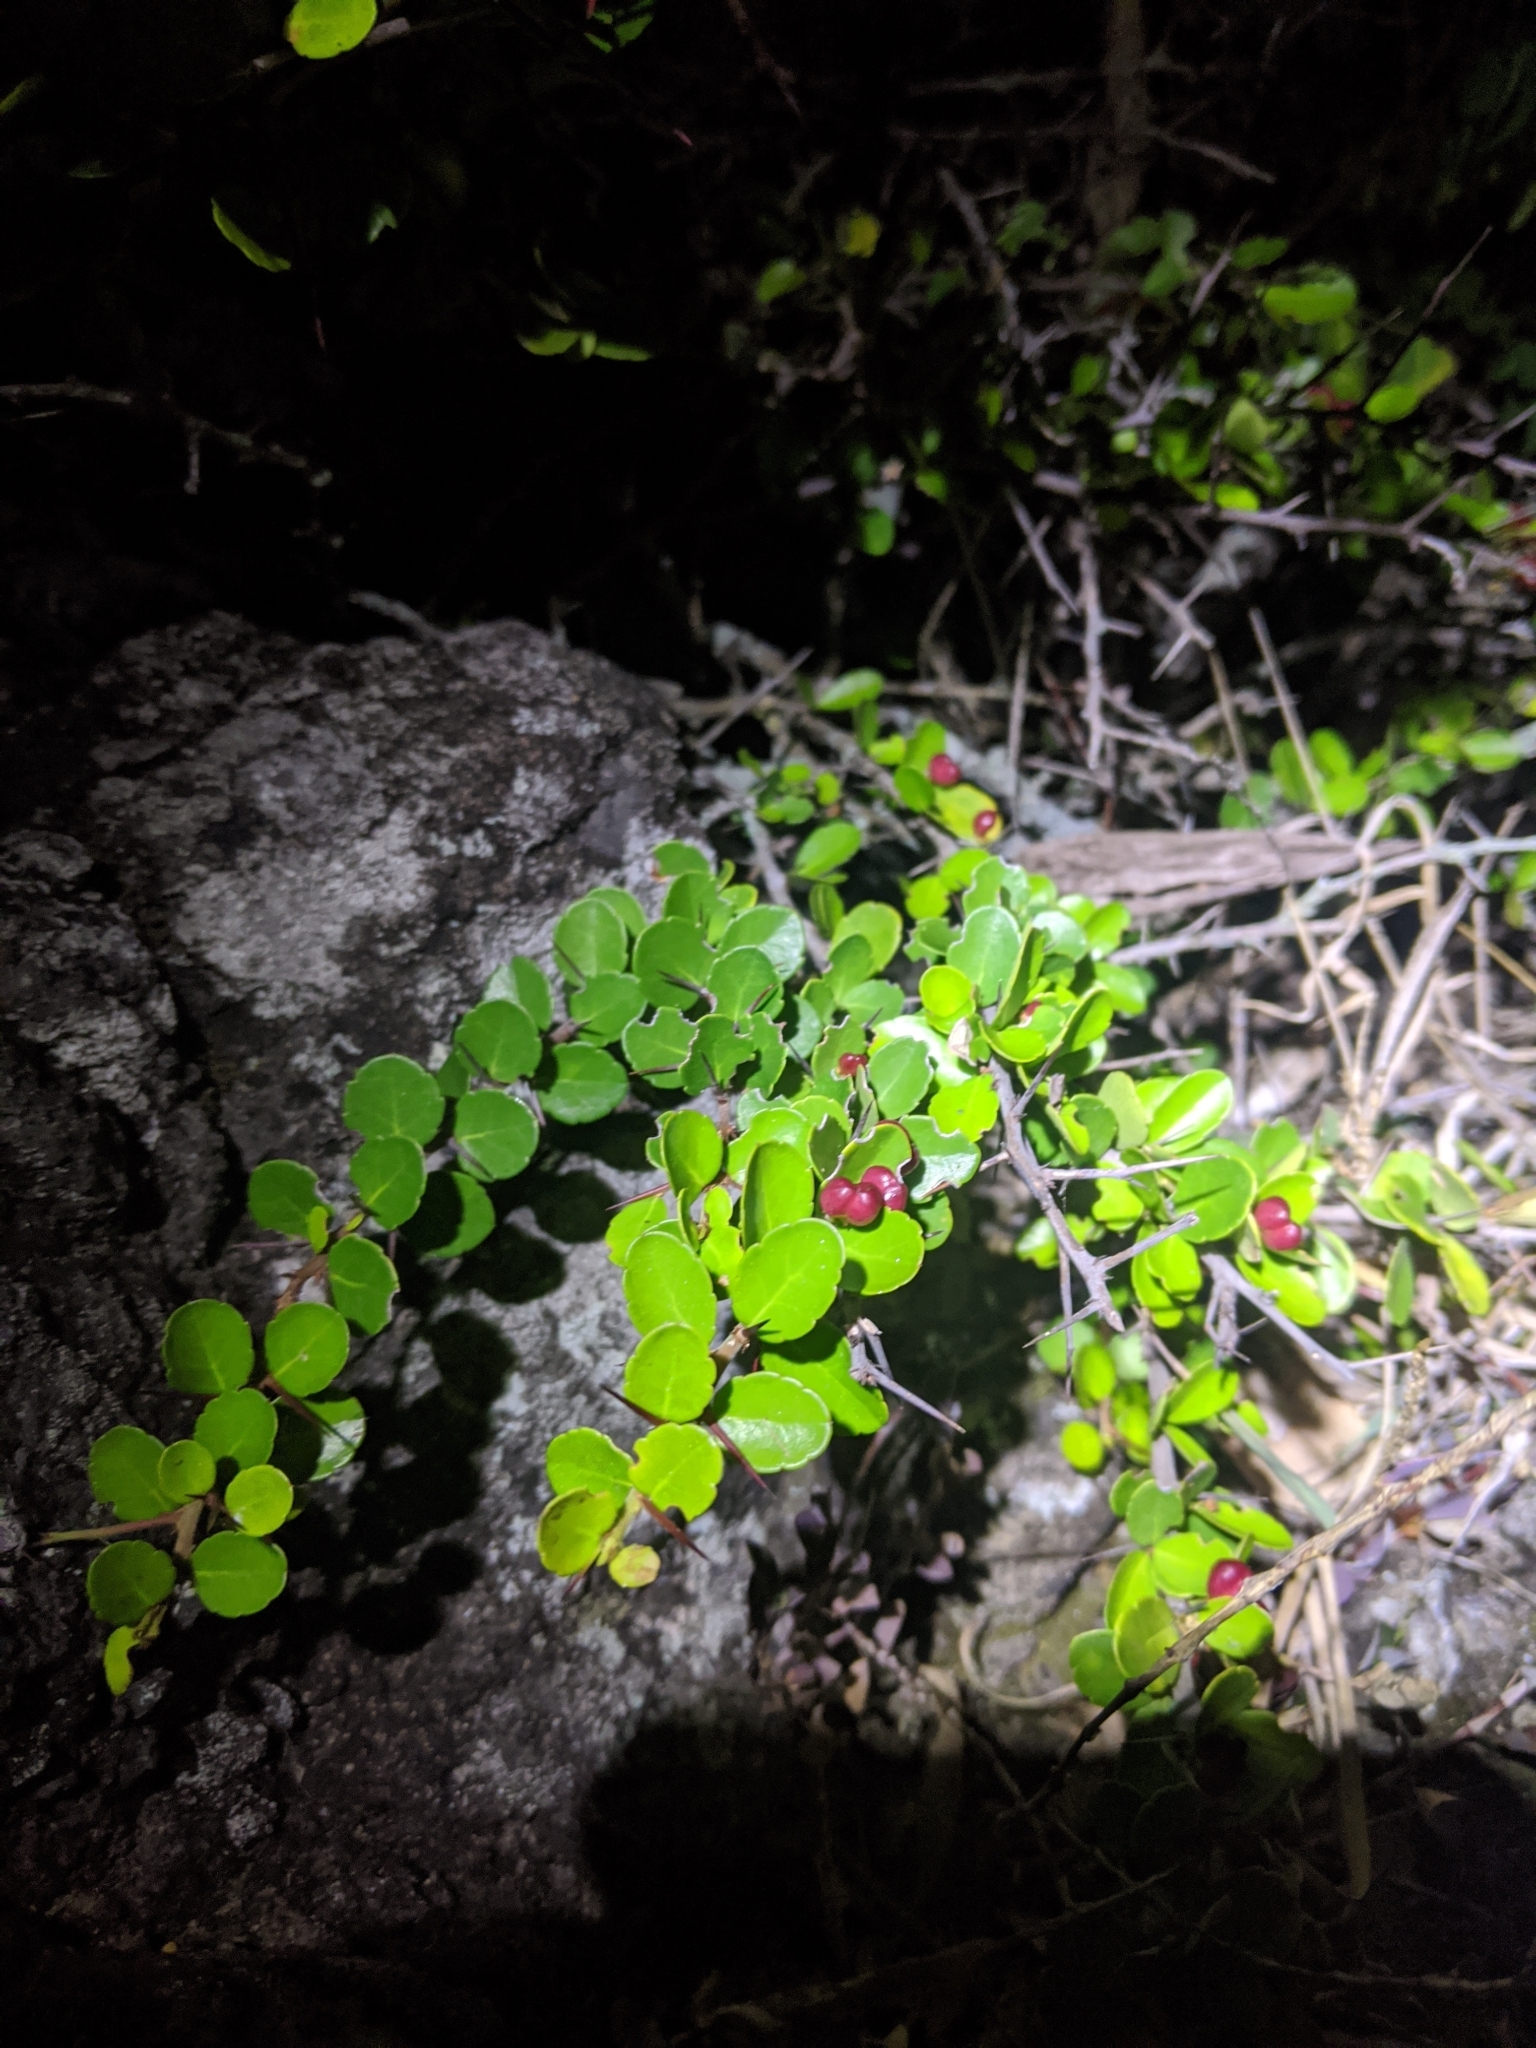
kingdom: Plantae
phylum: Tracheophyta
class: Magnoliopsida
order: Celastrales
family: Celastraceae
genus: Gymnosporia
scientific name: Gymnosporia diversifolia
